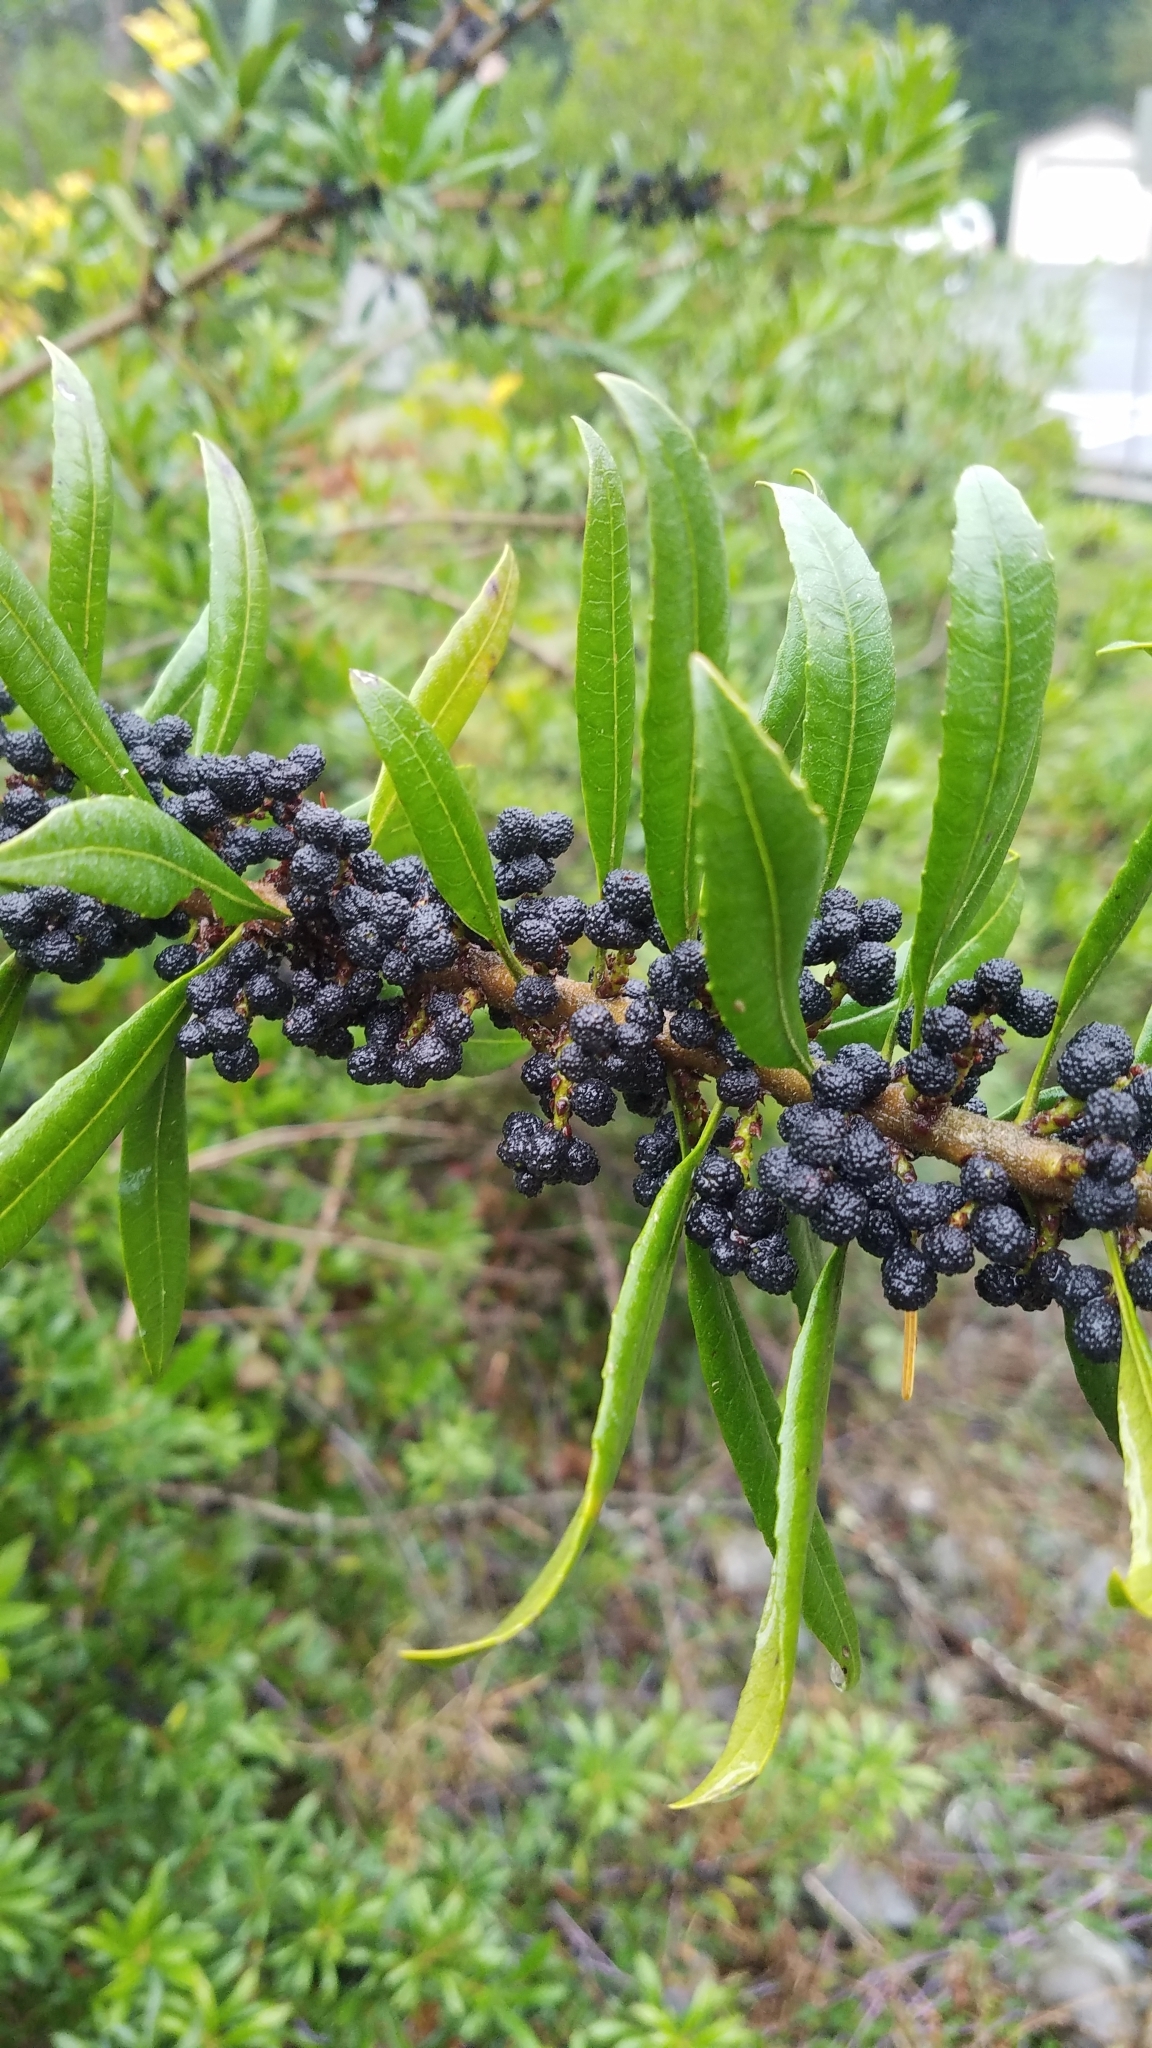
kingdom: Plantae
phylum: Tracheophyta
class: Magnoliopsida
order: Fagales
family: Myricaceae
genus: Morella
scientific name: Morella californica
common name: California wax-myrtle
